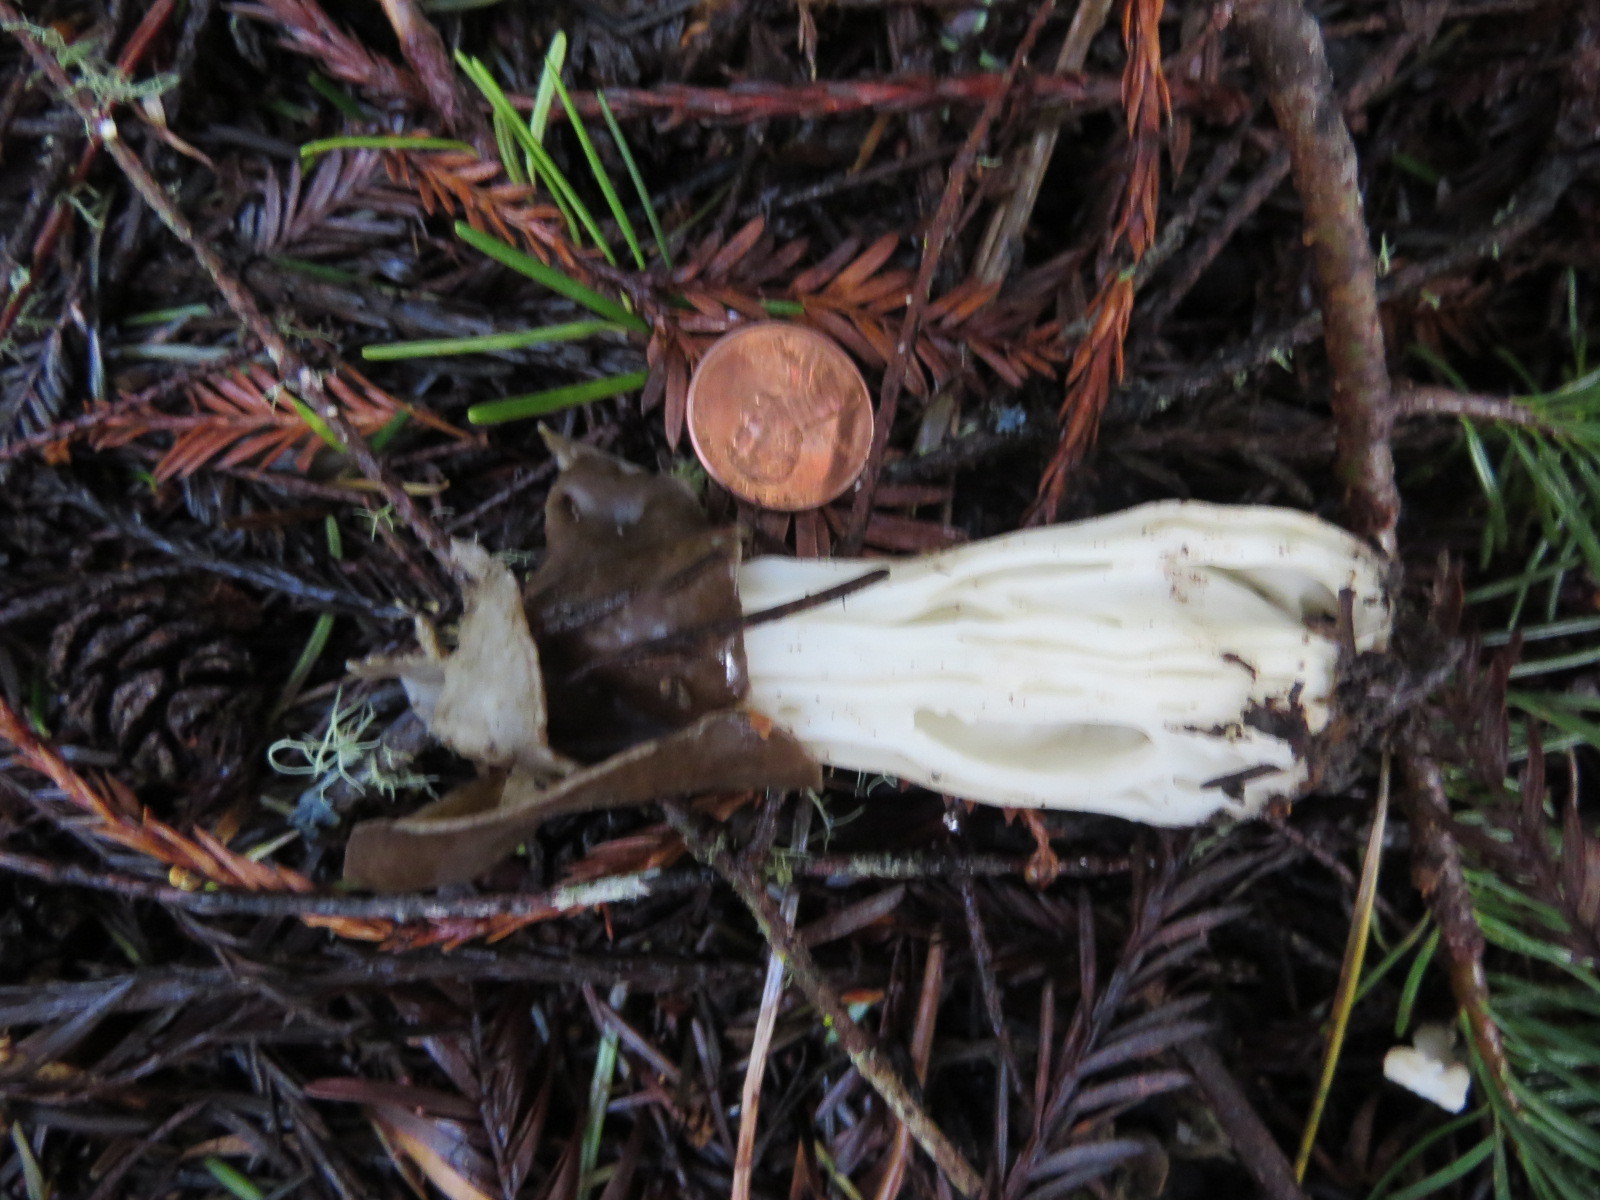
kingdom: Fungi
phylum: Ascomycota
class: Pezizomycetes
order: Pezizales
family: Helvellaceae
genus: Helvella
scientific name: Helvella maculata
